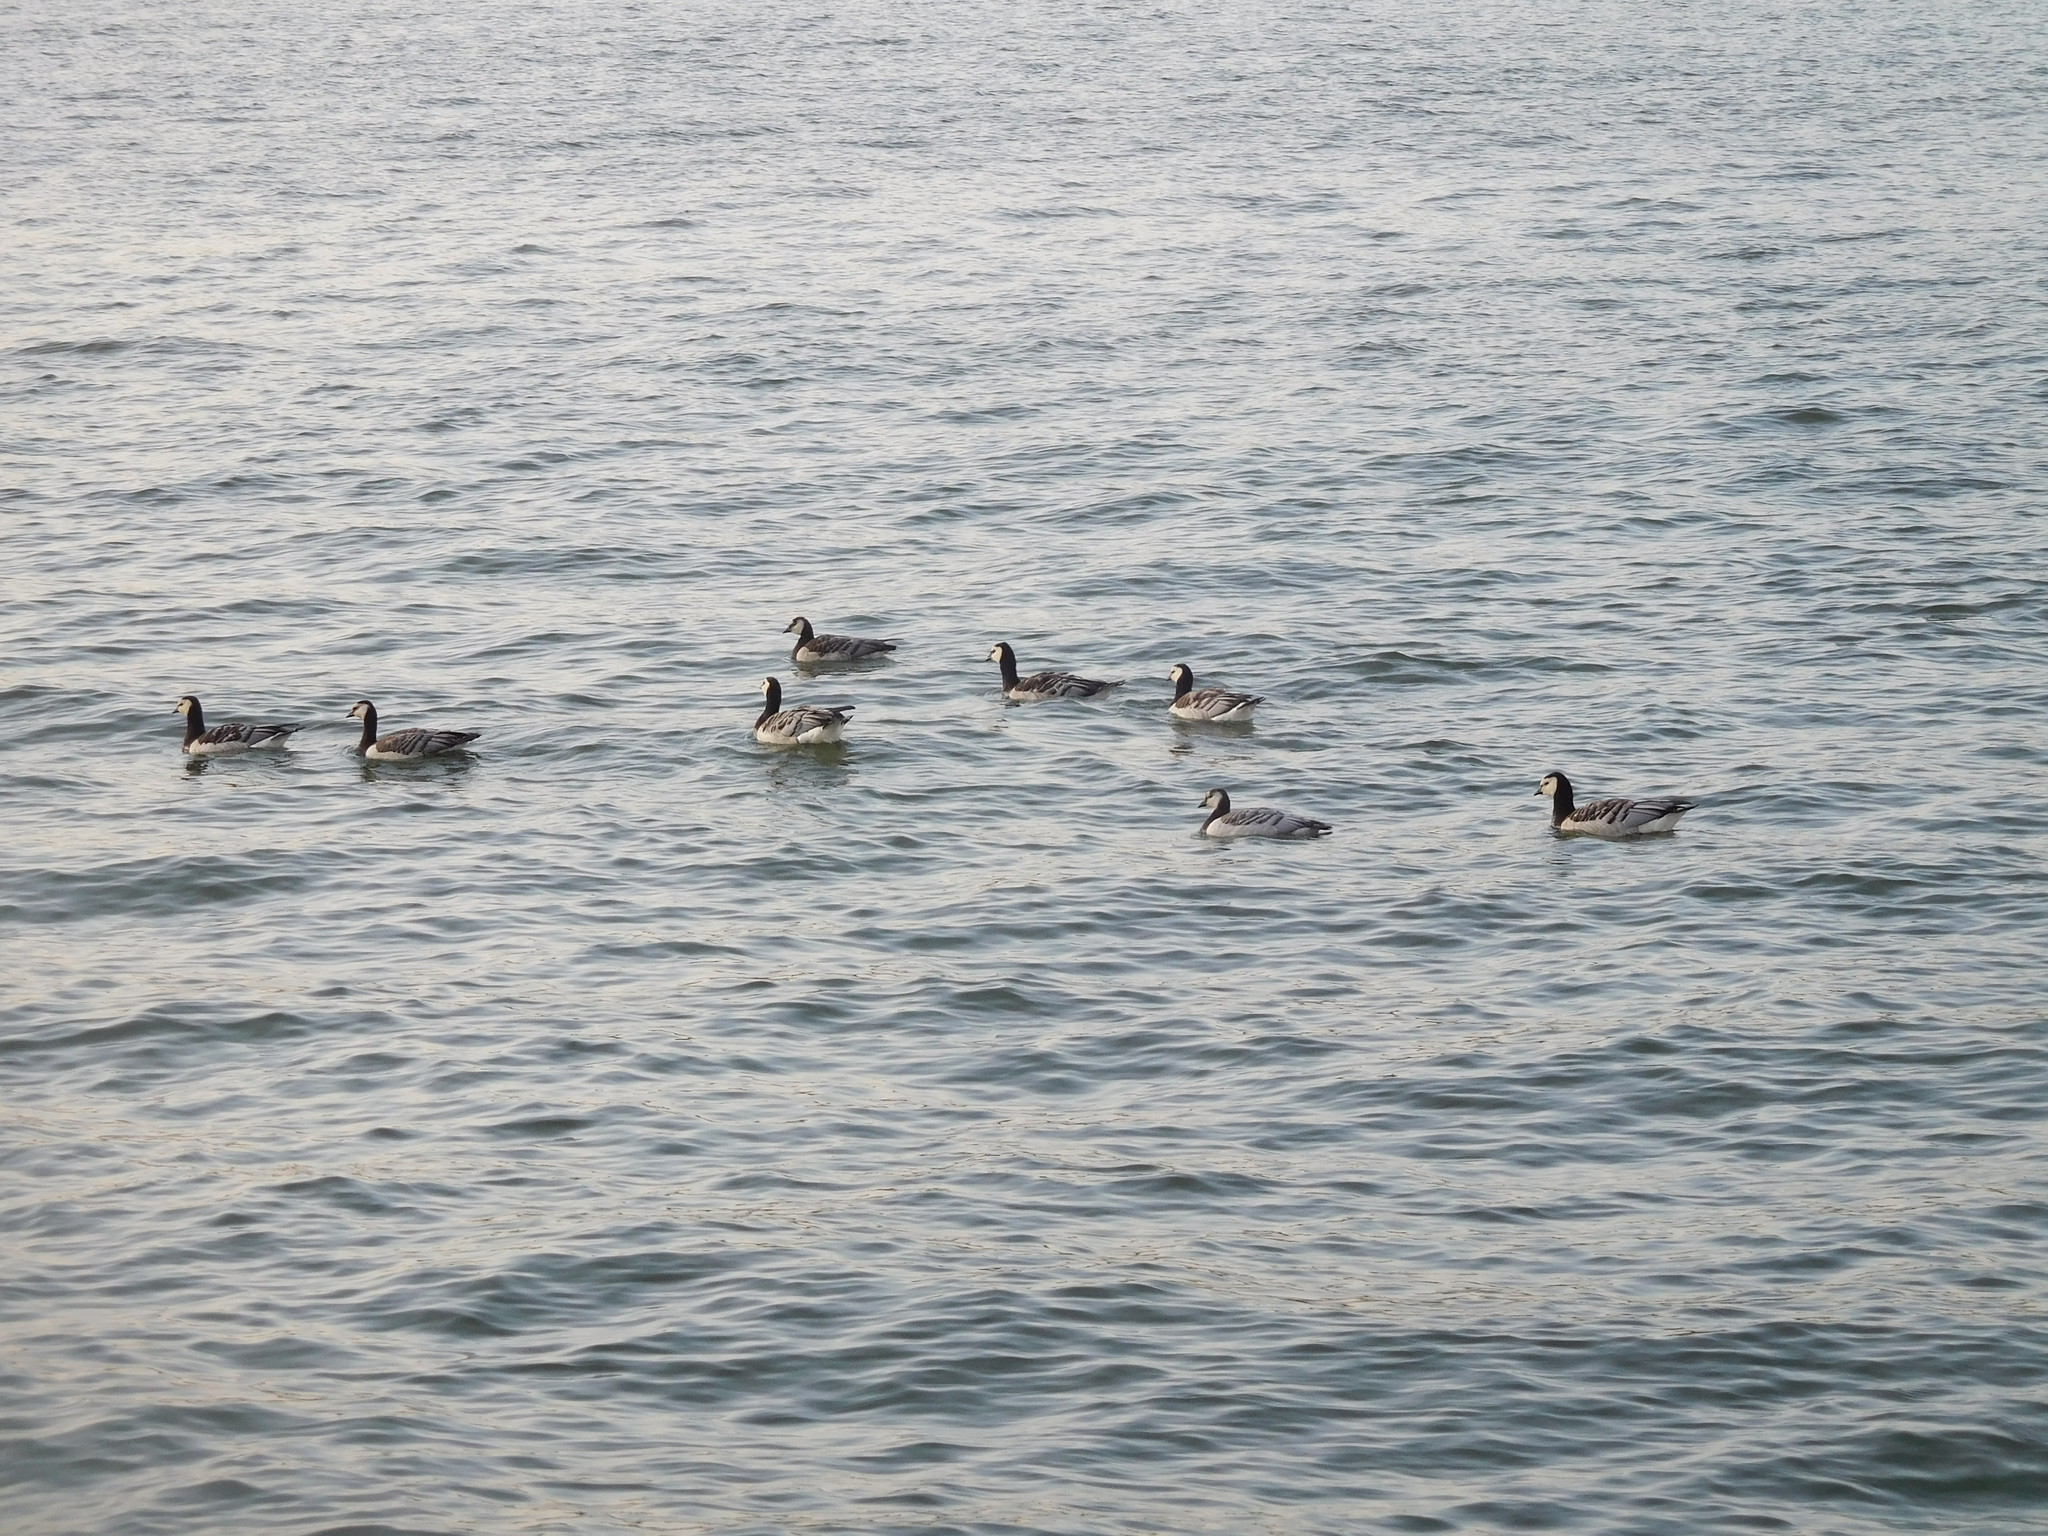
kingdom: Animalia
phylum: Chordata
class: Aves
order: Anseriformes
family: Anatidae
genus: Branta
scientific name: Branta leucopsis
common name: Barnacle goose
